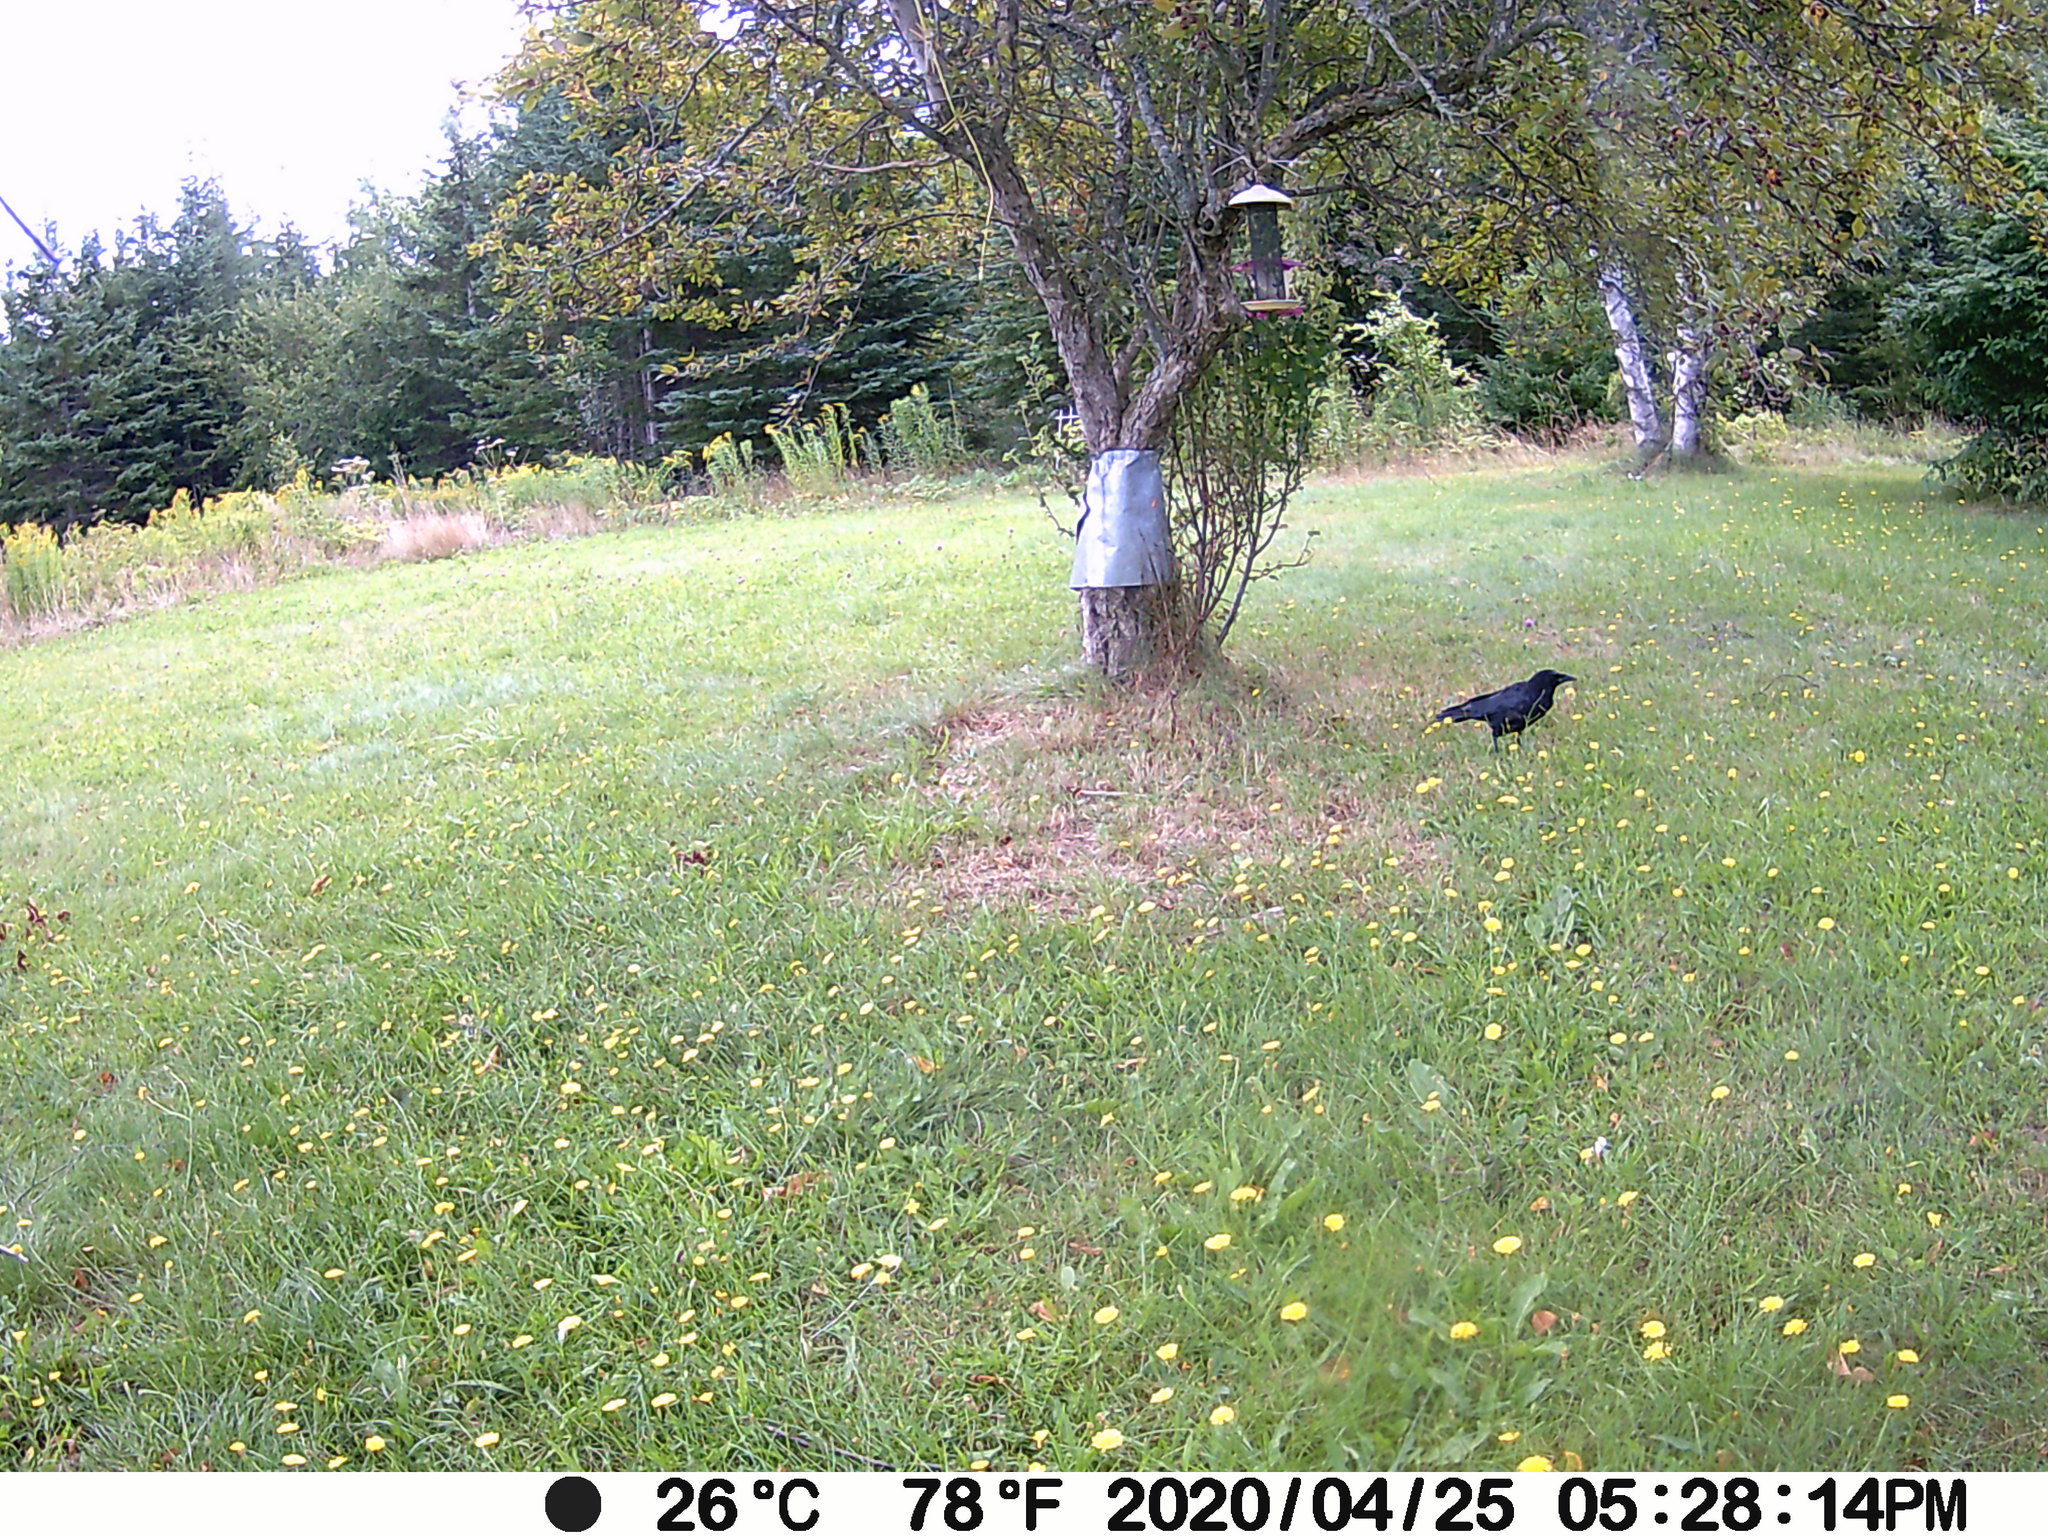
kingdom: Animalia
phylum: Chordata
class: Aves
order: Passeriformes
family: Corvidae
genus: Corvus
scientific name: Corvus brachyrhynchos
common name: American crow
